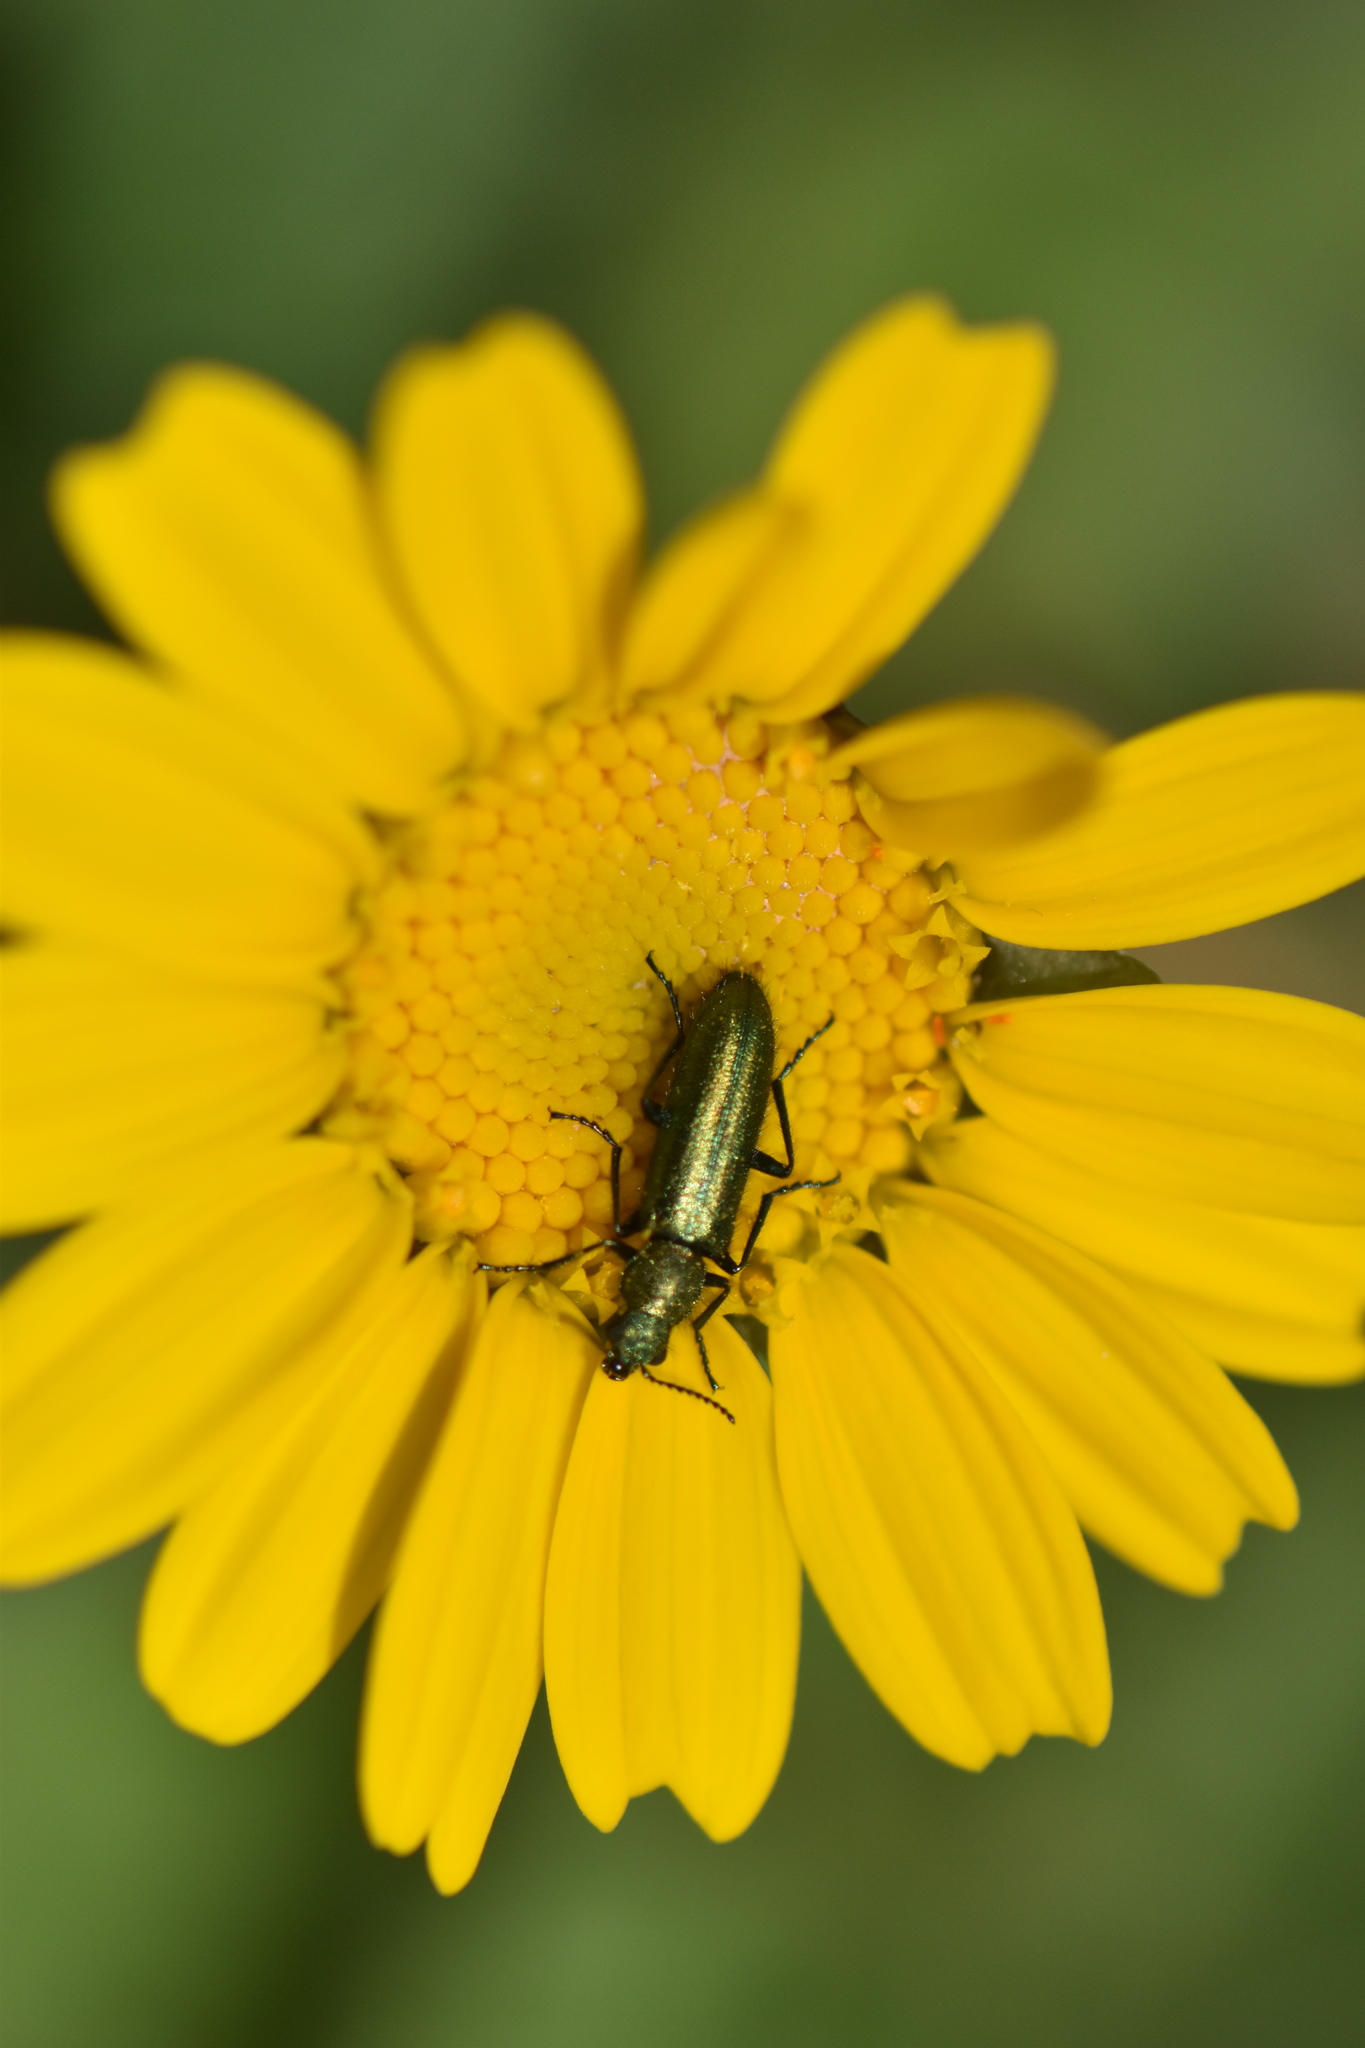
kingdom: Animalia
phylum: Arthropoda
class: Insecta
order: Coleoptera
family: Dasytidae
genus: Psilothrix
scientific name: Psilothrix viridicoerulea
